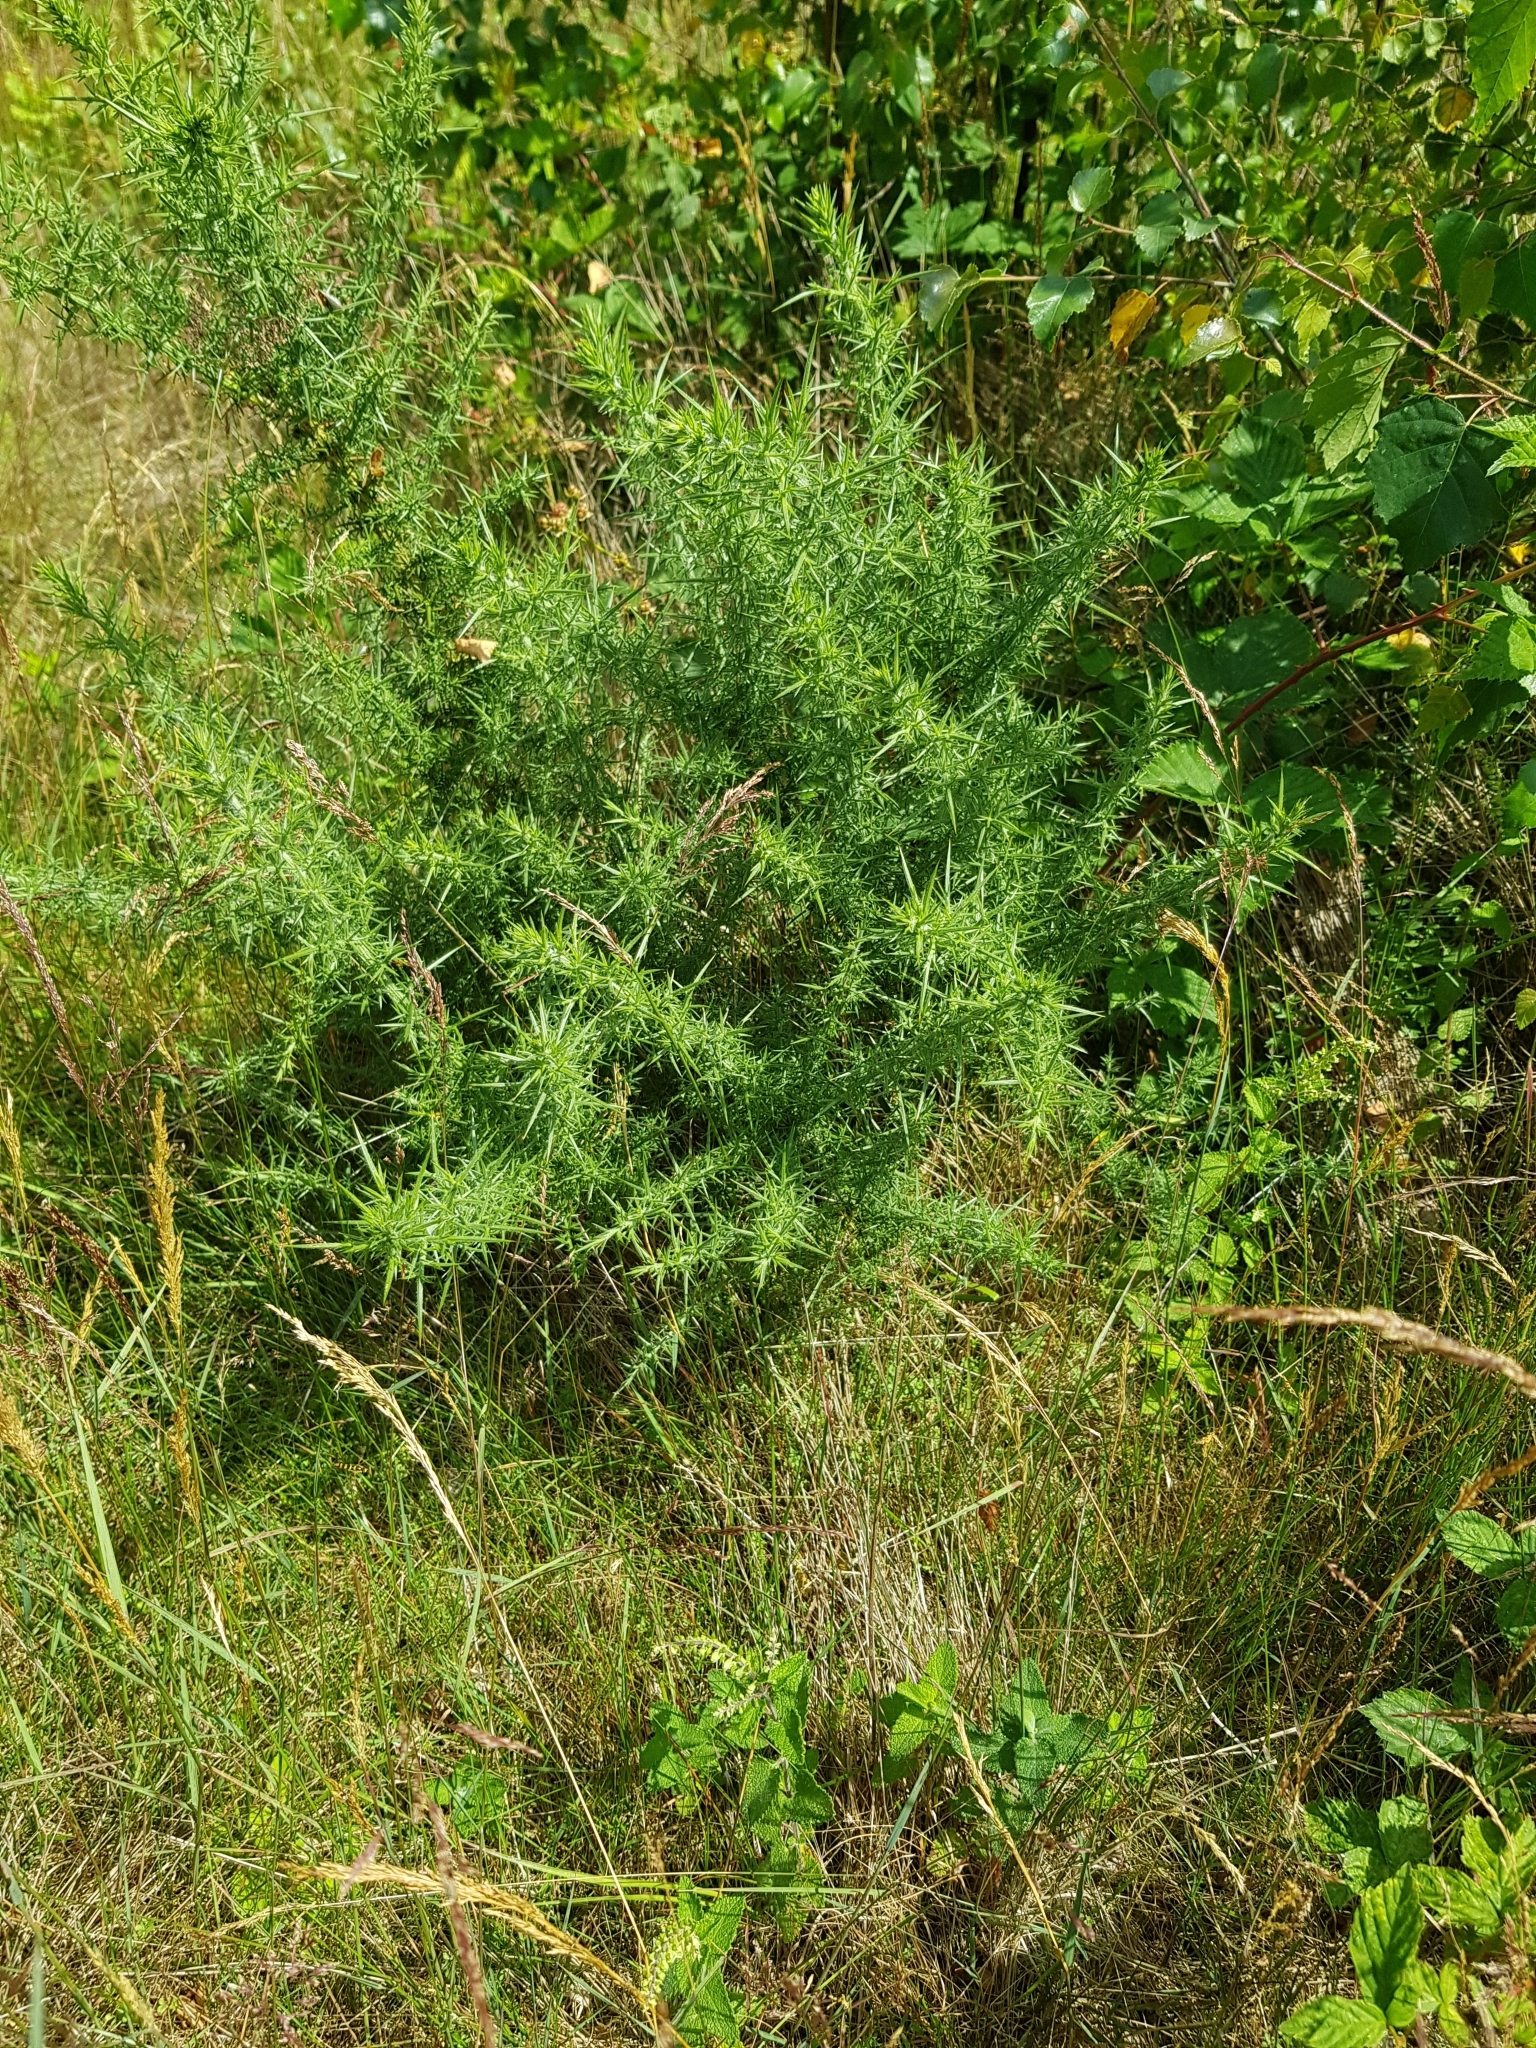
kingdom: Plantae
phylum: Tracheophyta
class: Magnoliopsida
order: Fabales
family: Fabaceae
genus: Ulex
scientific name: Ulex europaeus
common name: Common gorse
